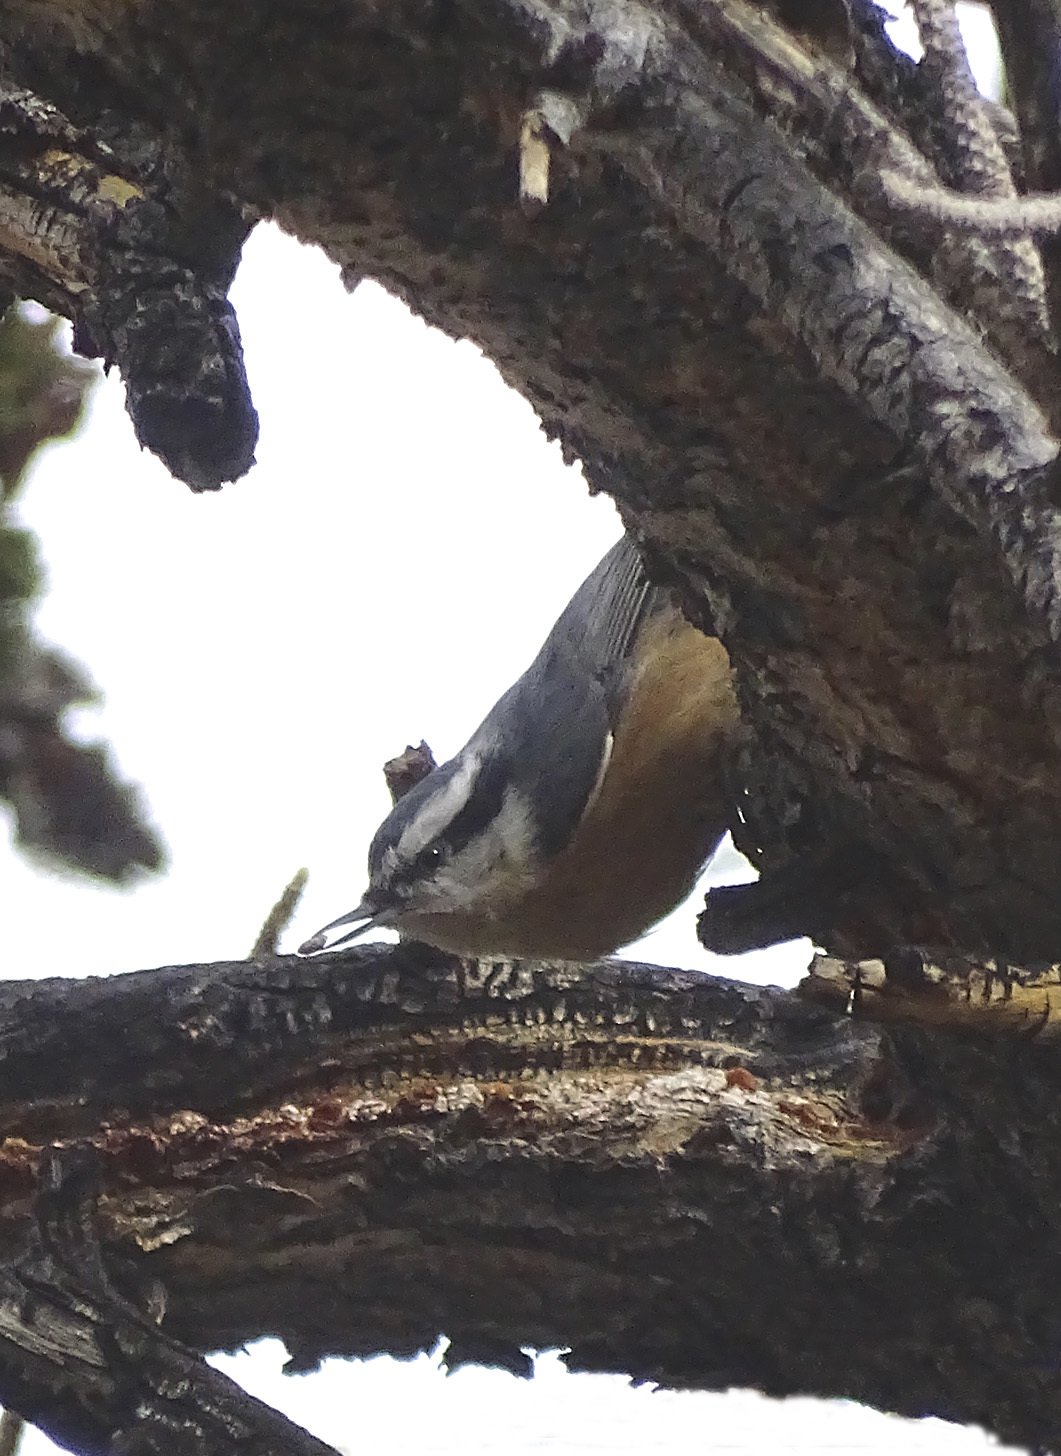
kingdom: Animalia
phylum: Chordata
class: Aves
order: Passeriformes
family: Sittidae
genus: Sitta
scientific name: Sitta canadensis
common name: Red-breasted nuthatch
